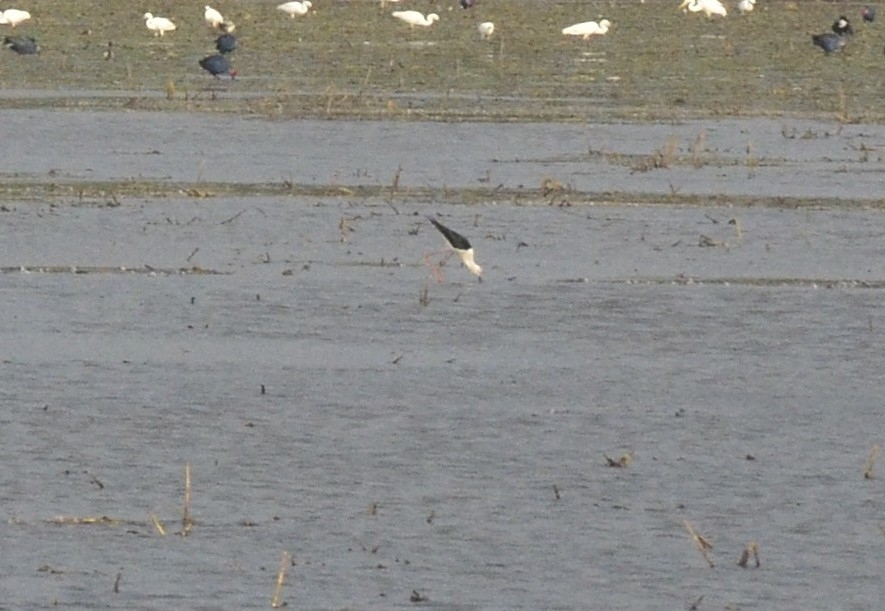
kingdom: Animalia
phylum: Chordata
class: Aves
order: Charadriiformes
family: Recurvirostridae
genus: Himantopus
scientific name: Himantopus himantopus
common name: Black-winged stilt
